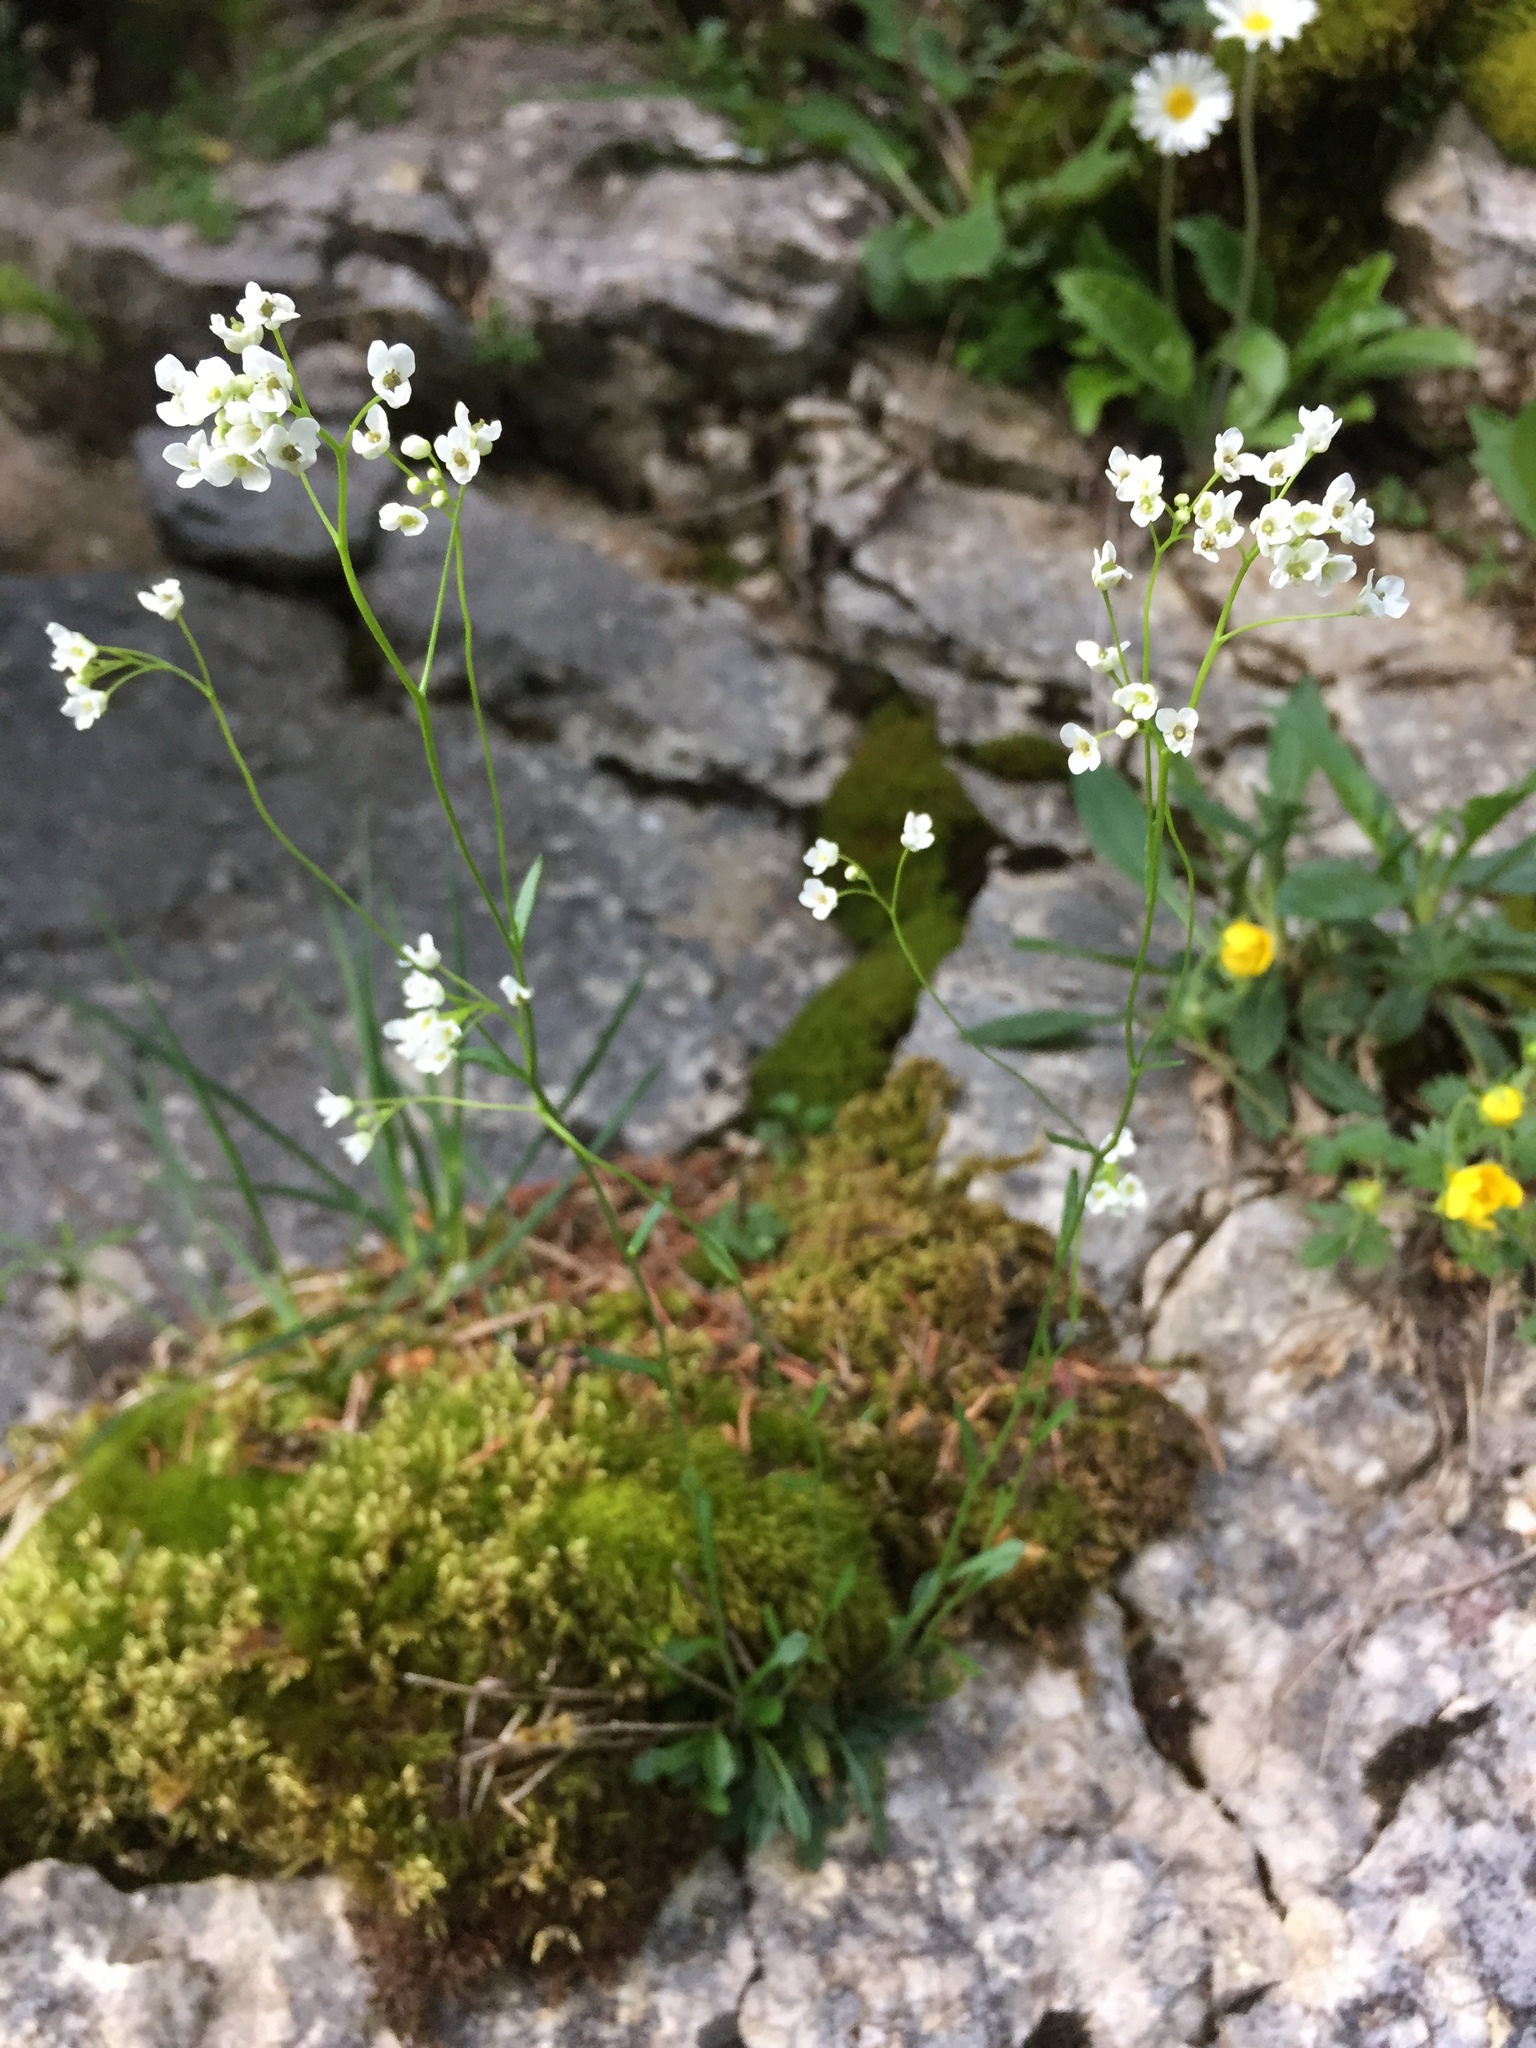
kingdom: Plantae
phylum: Tracheophyta
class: Magnoliopsida
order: Brassicales
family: Brassicaceae
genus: Kernera
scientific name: Kernera saxatilis
